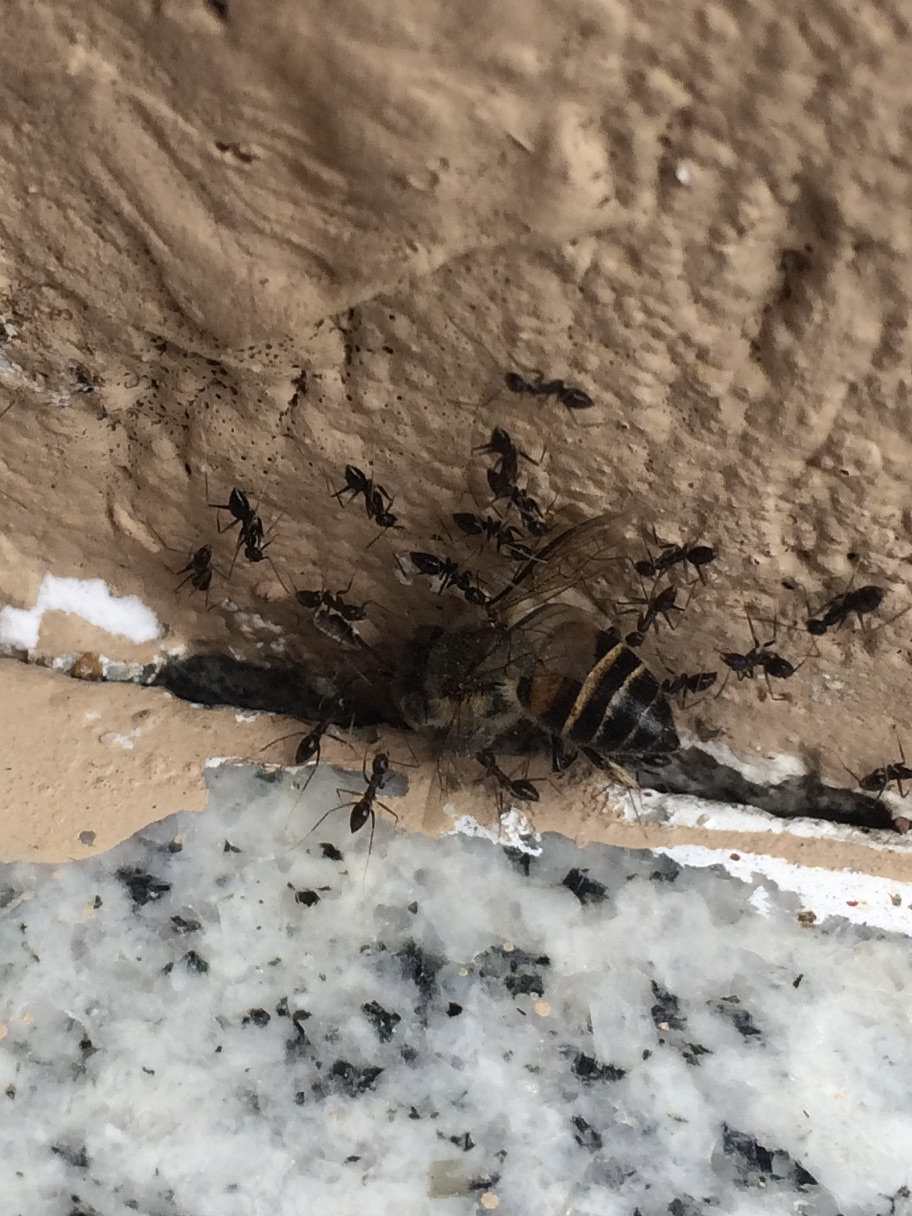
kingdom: Animalia
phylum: Arthropoda
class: Insecta
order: Hymenoptera
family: Apidae
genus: Apis
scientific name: Apis cerana
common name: Honey bee
